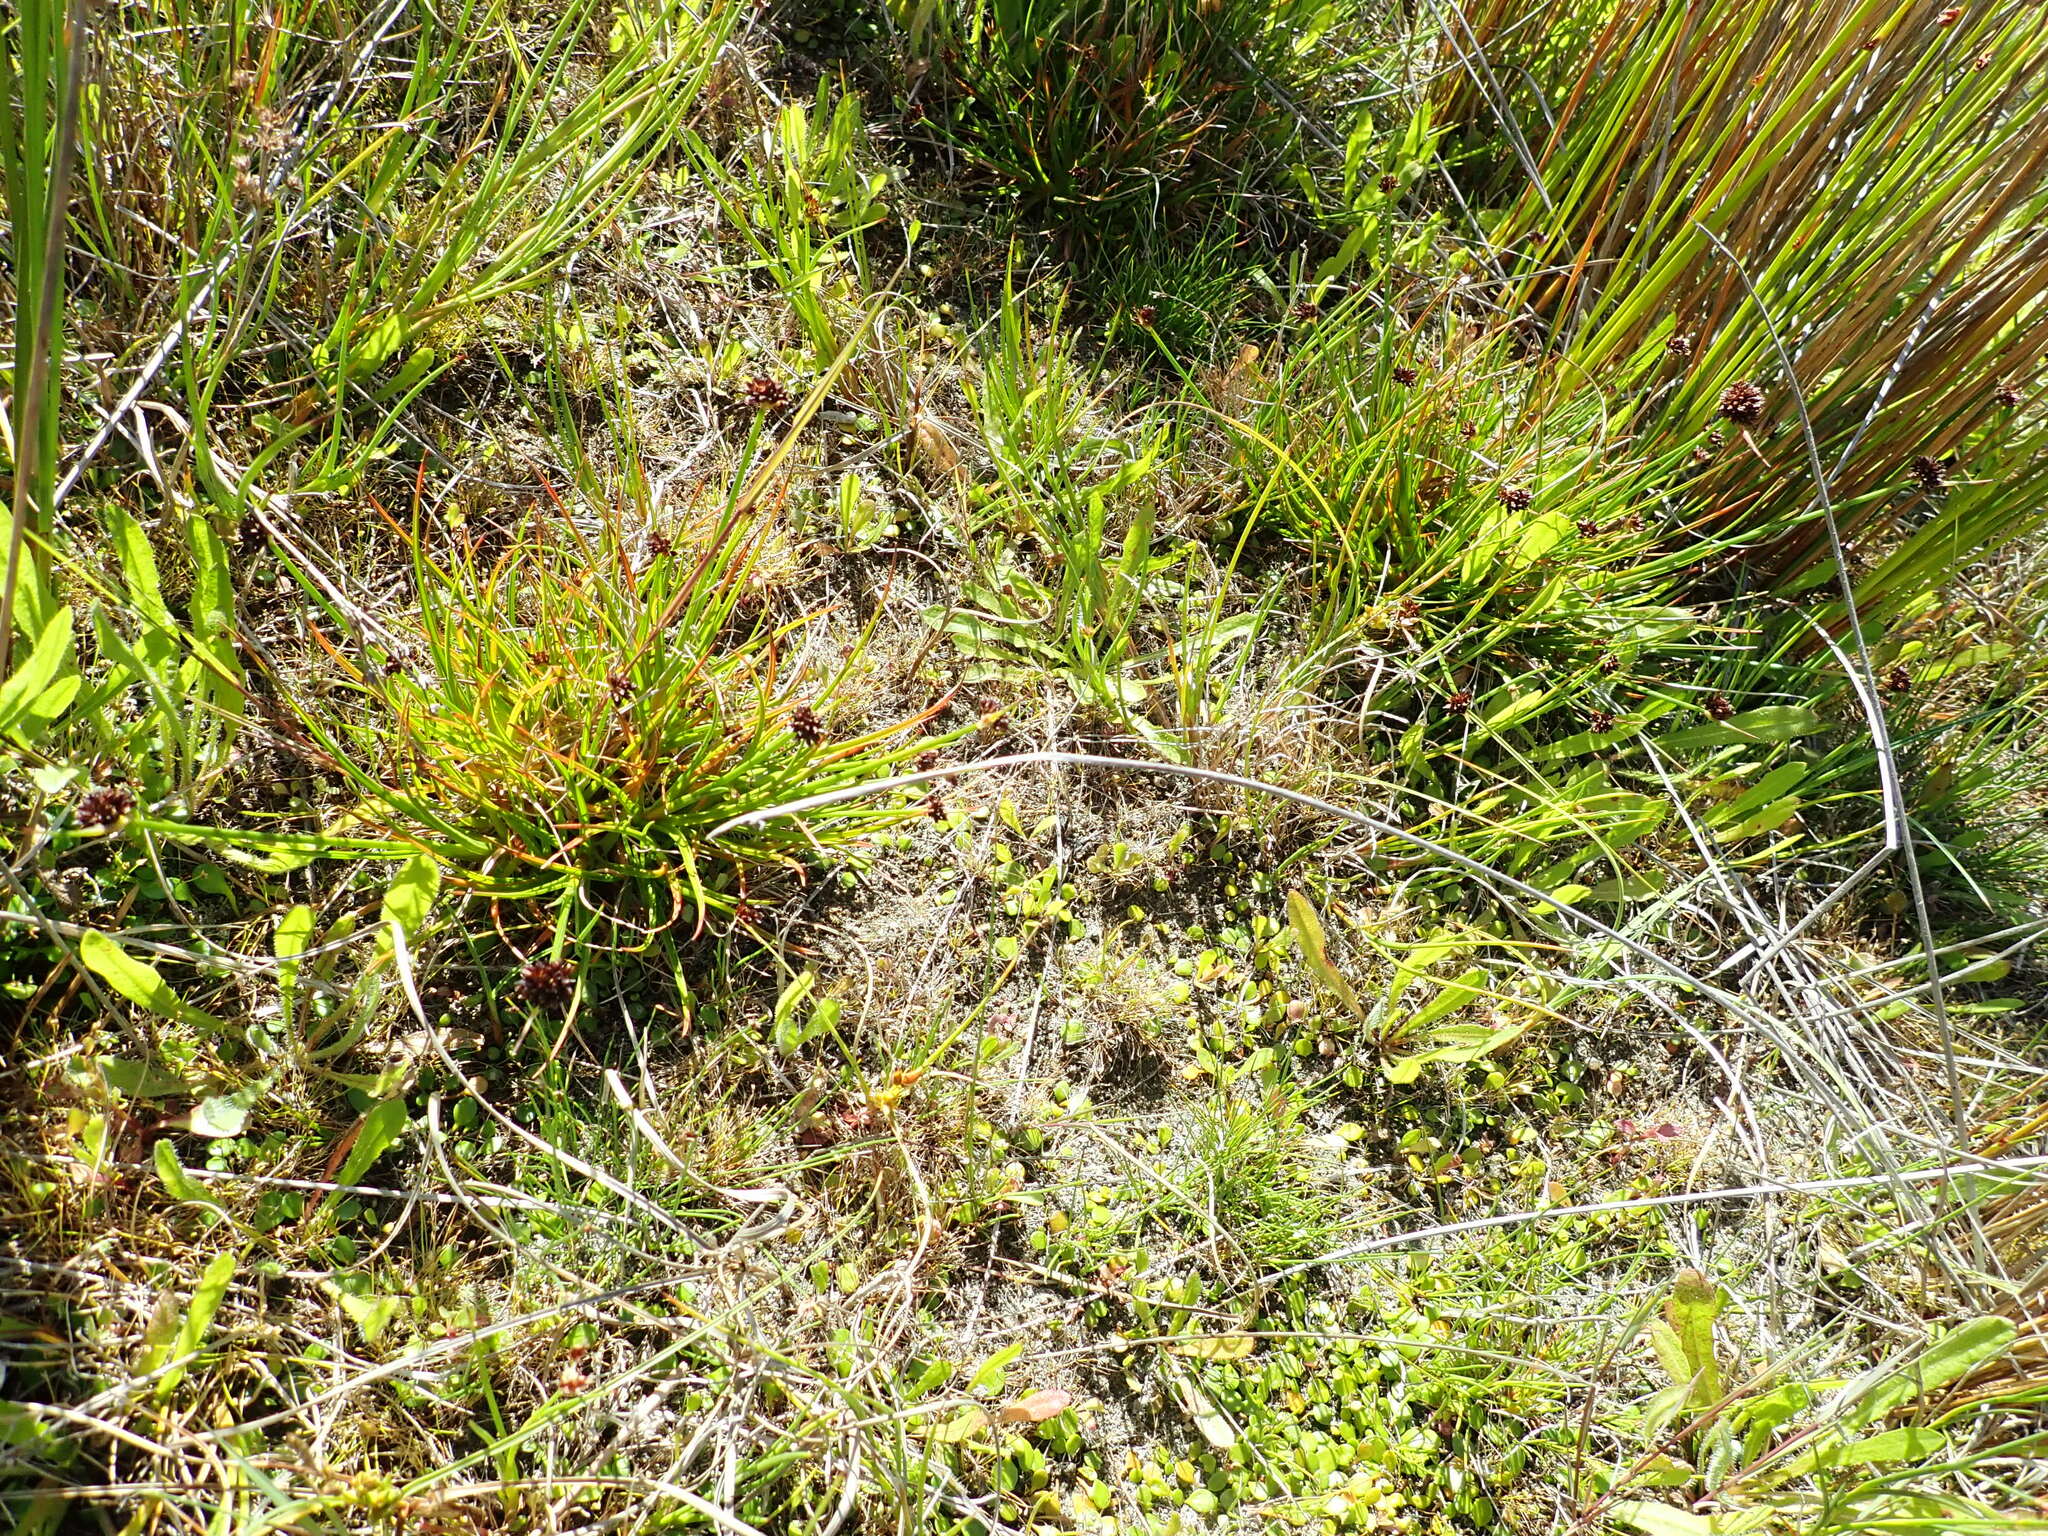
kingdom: Plantae
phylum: Tracheophyta
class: Liliopsida
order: Poales
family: Juncaceae
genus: Juncus
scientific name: Juncus caespiticius
